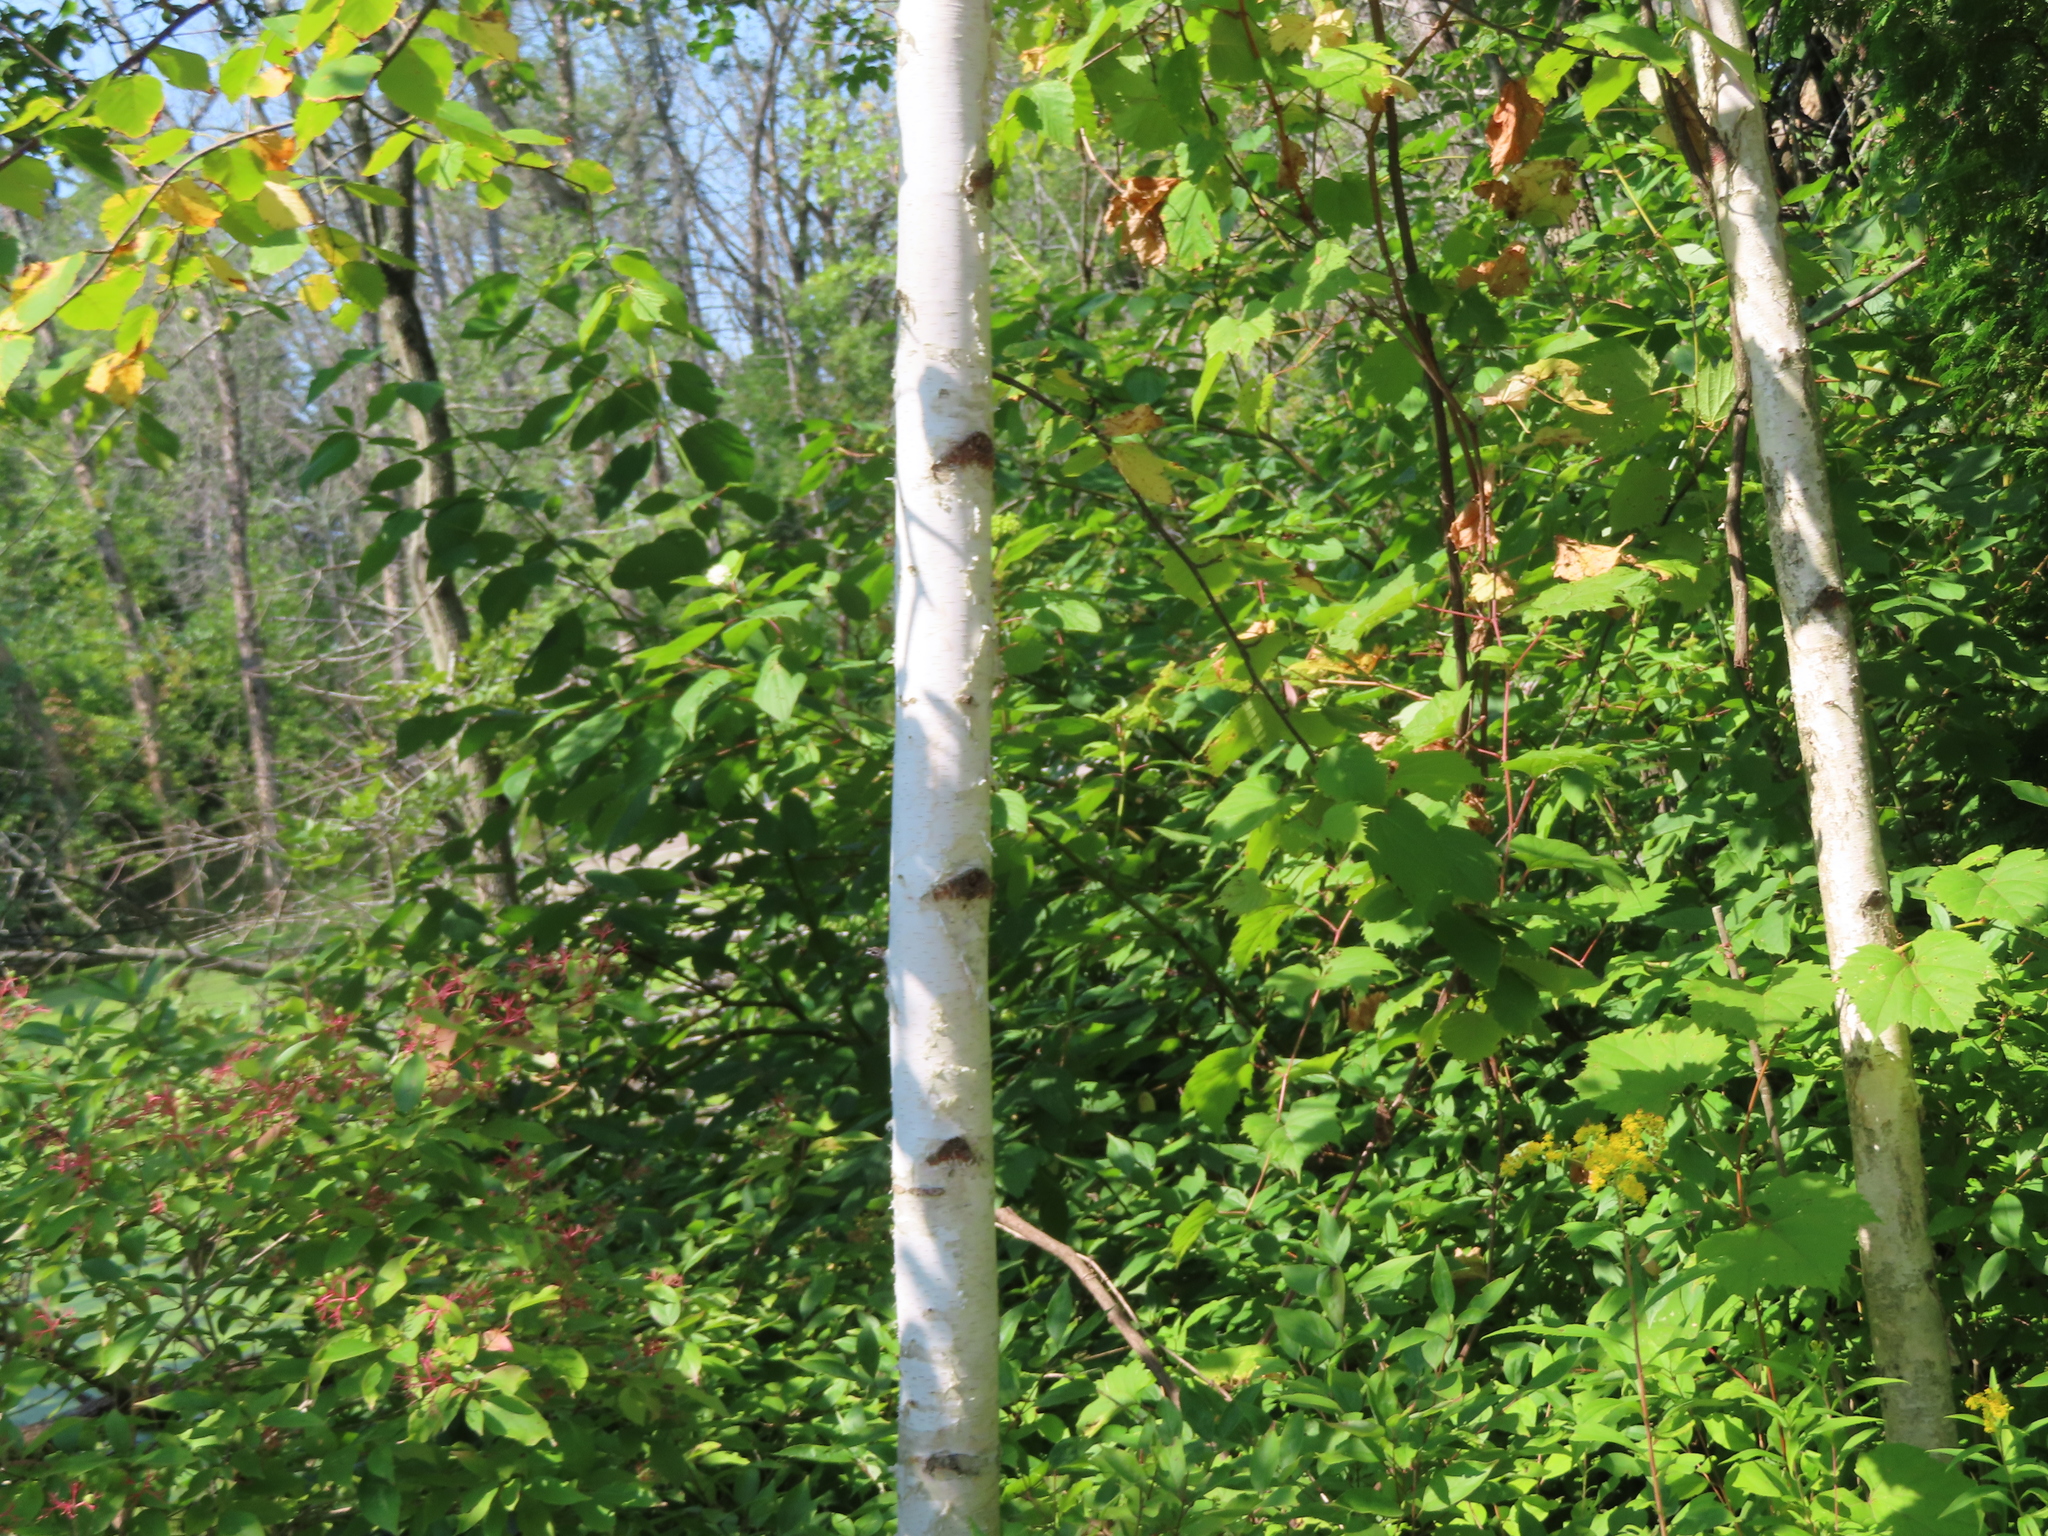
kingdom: Plantae
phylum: Tracheophyta
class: Magnoliopsida
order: Fagales
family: Betulaceae
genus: Betula
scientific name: Betula papyrifera
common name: Paper birch
